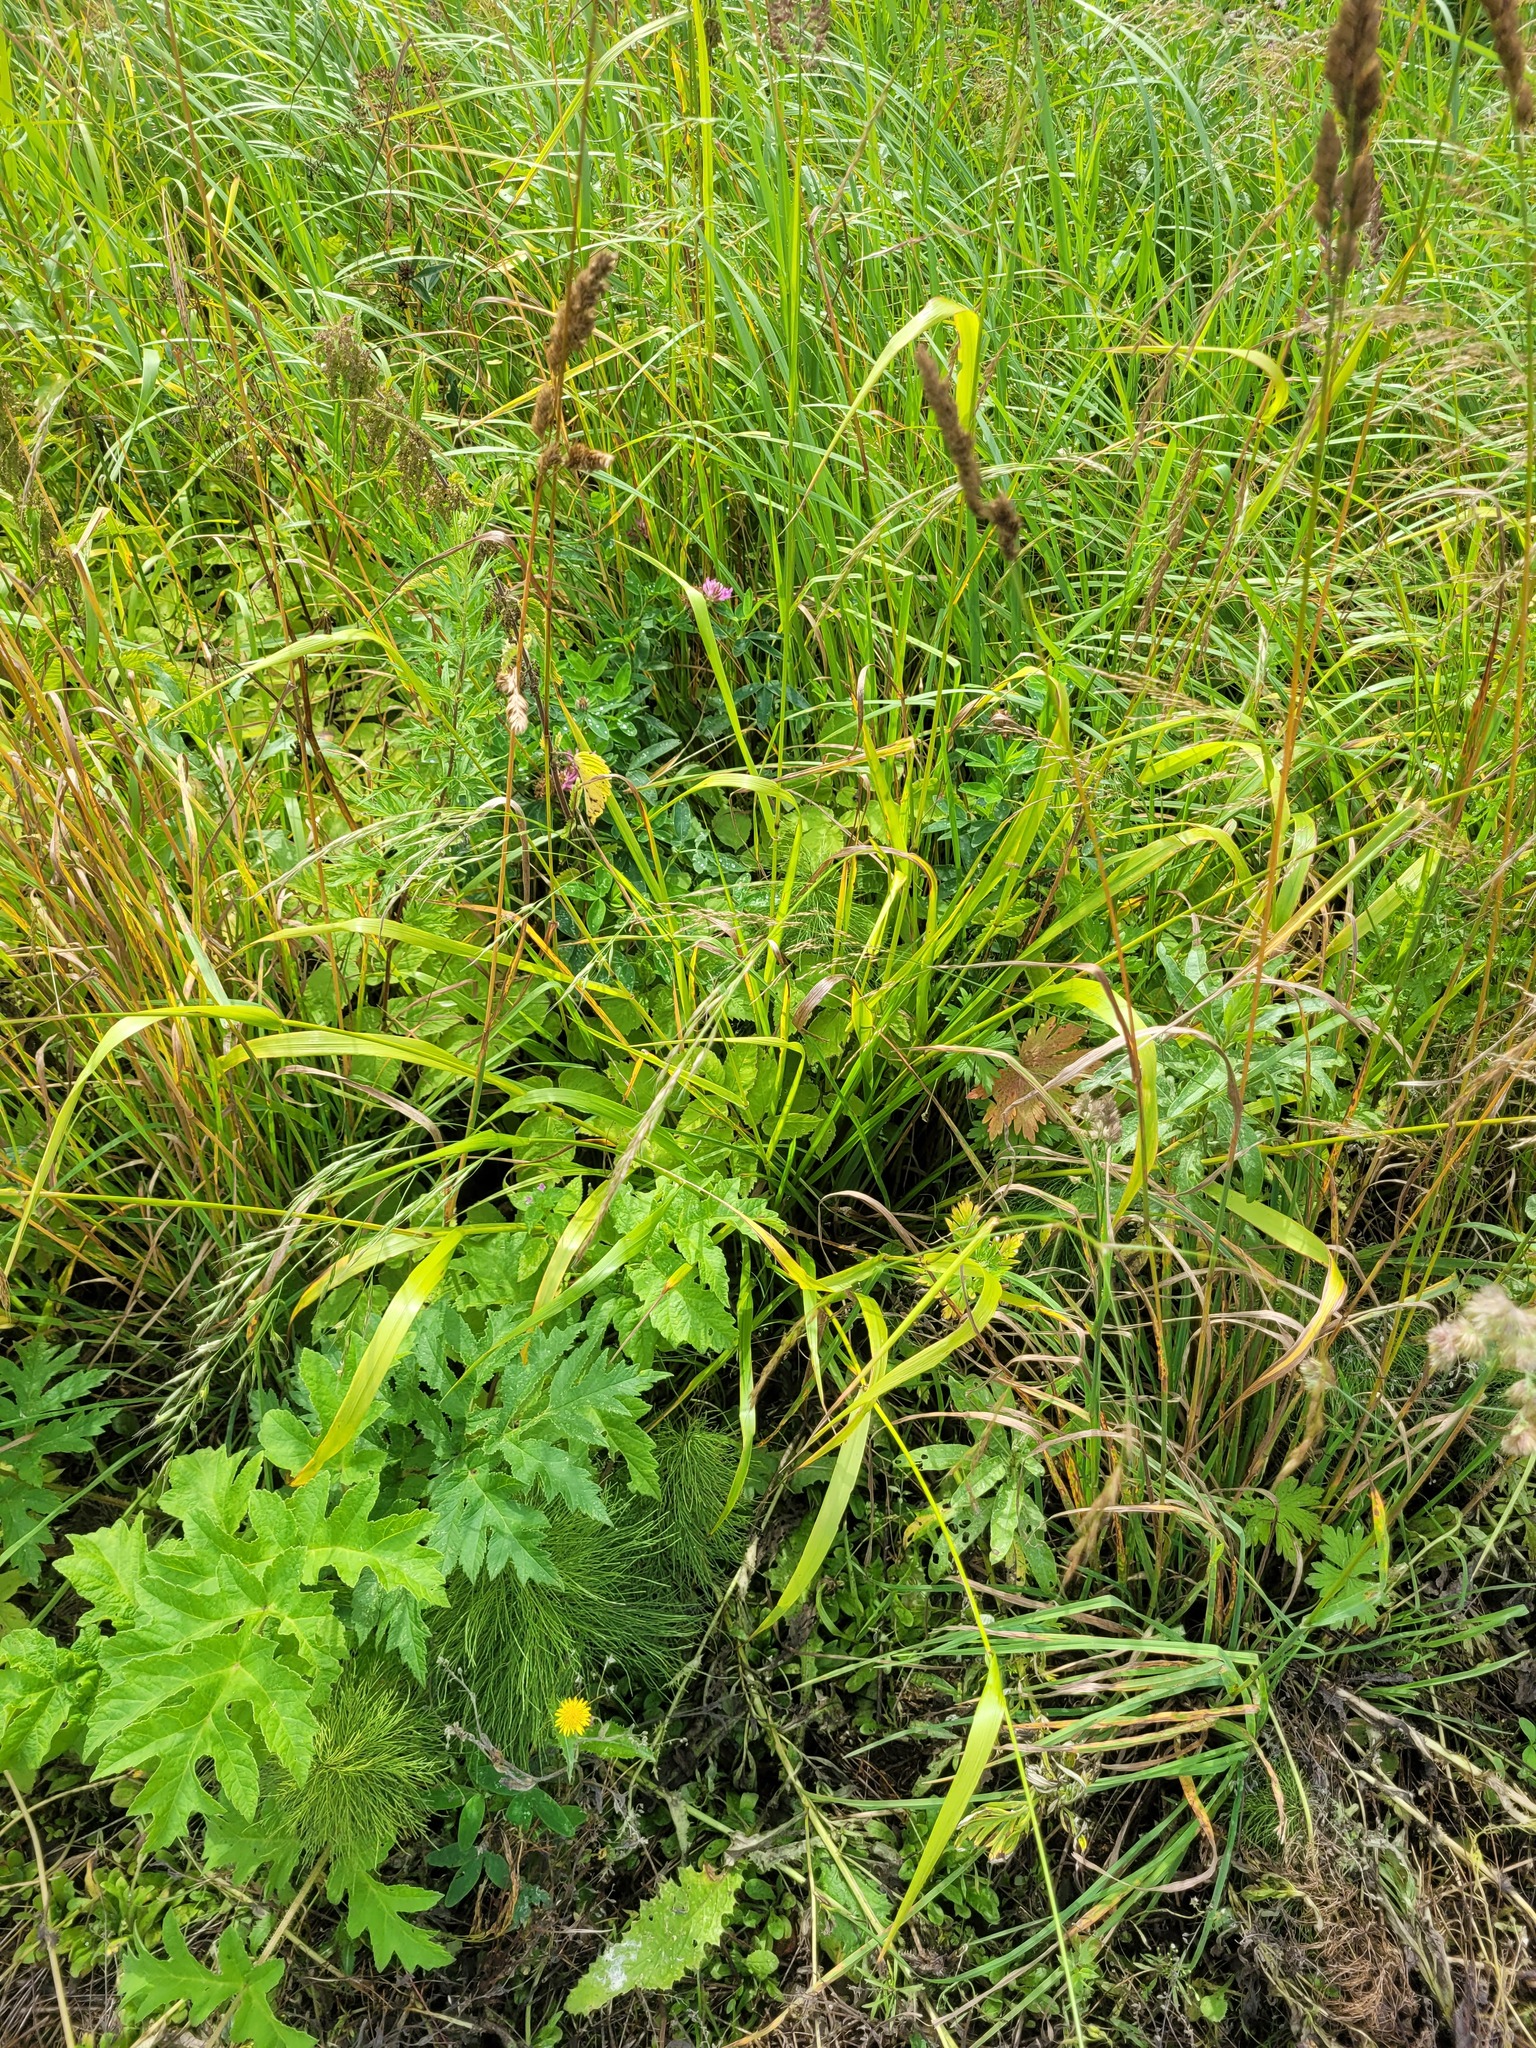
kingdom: Plantae
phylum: Tracheophyta
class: Liliopsida
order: Poales
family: Poaceae
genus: Lolium
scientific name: Lolium giganteum
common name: Giant fescue
